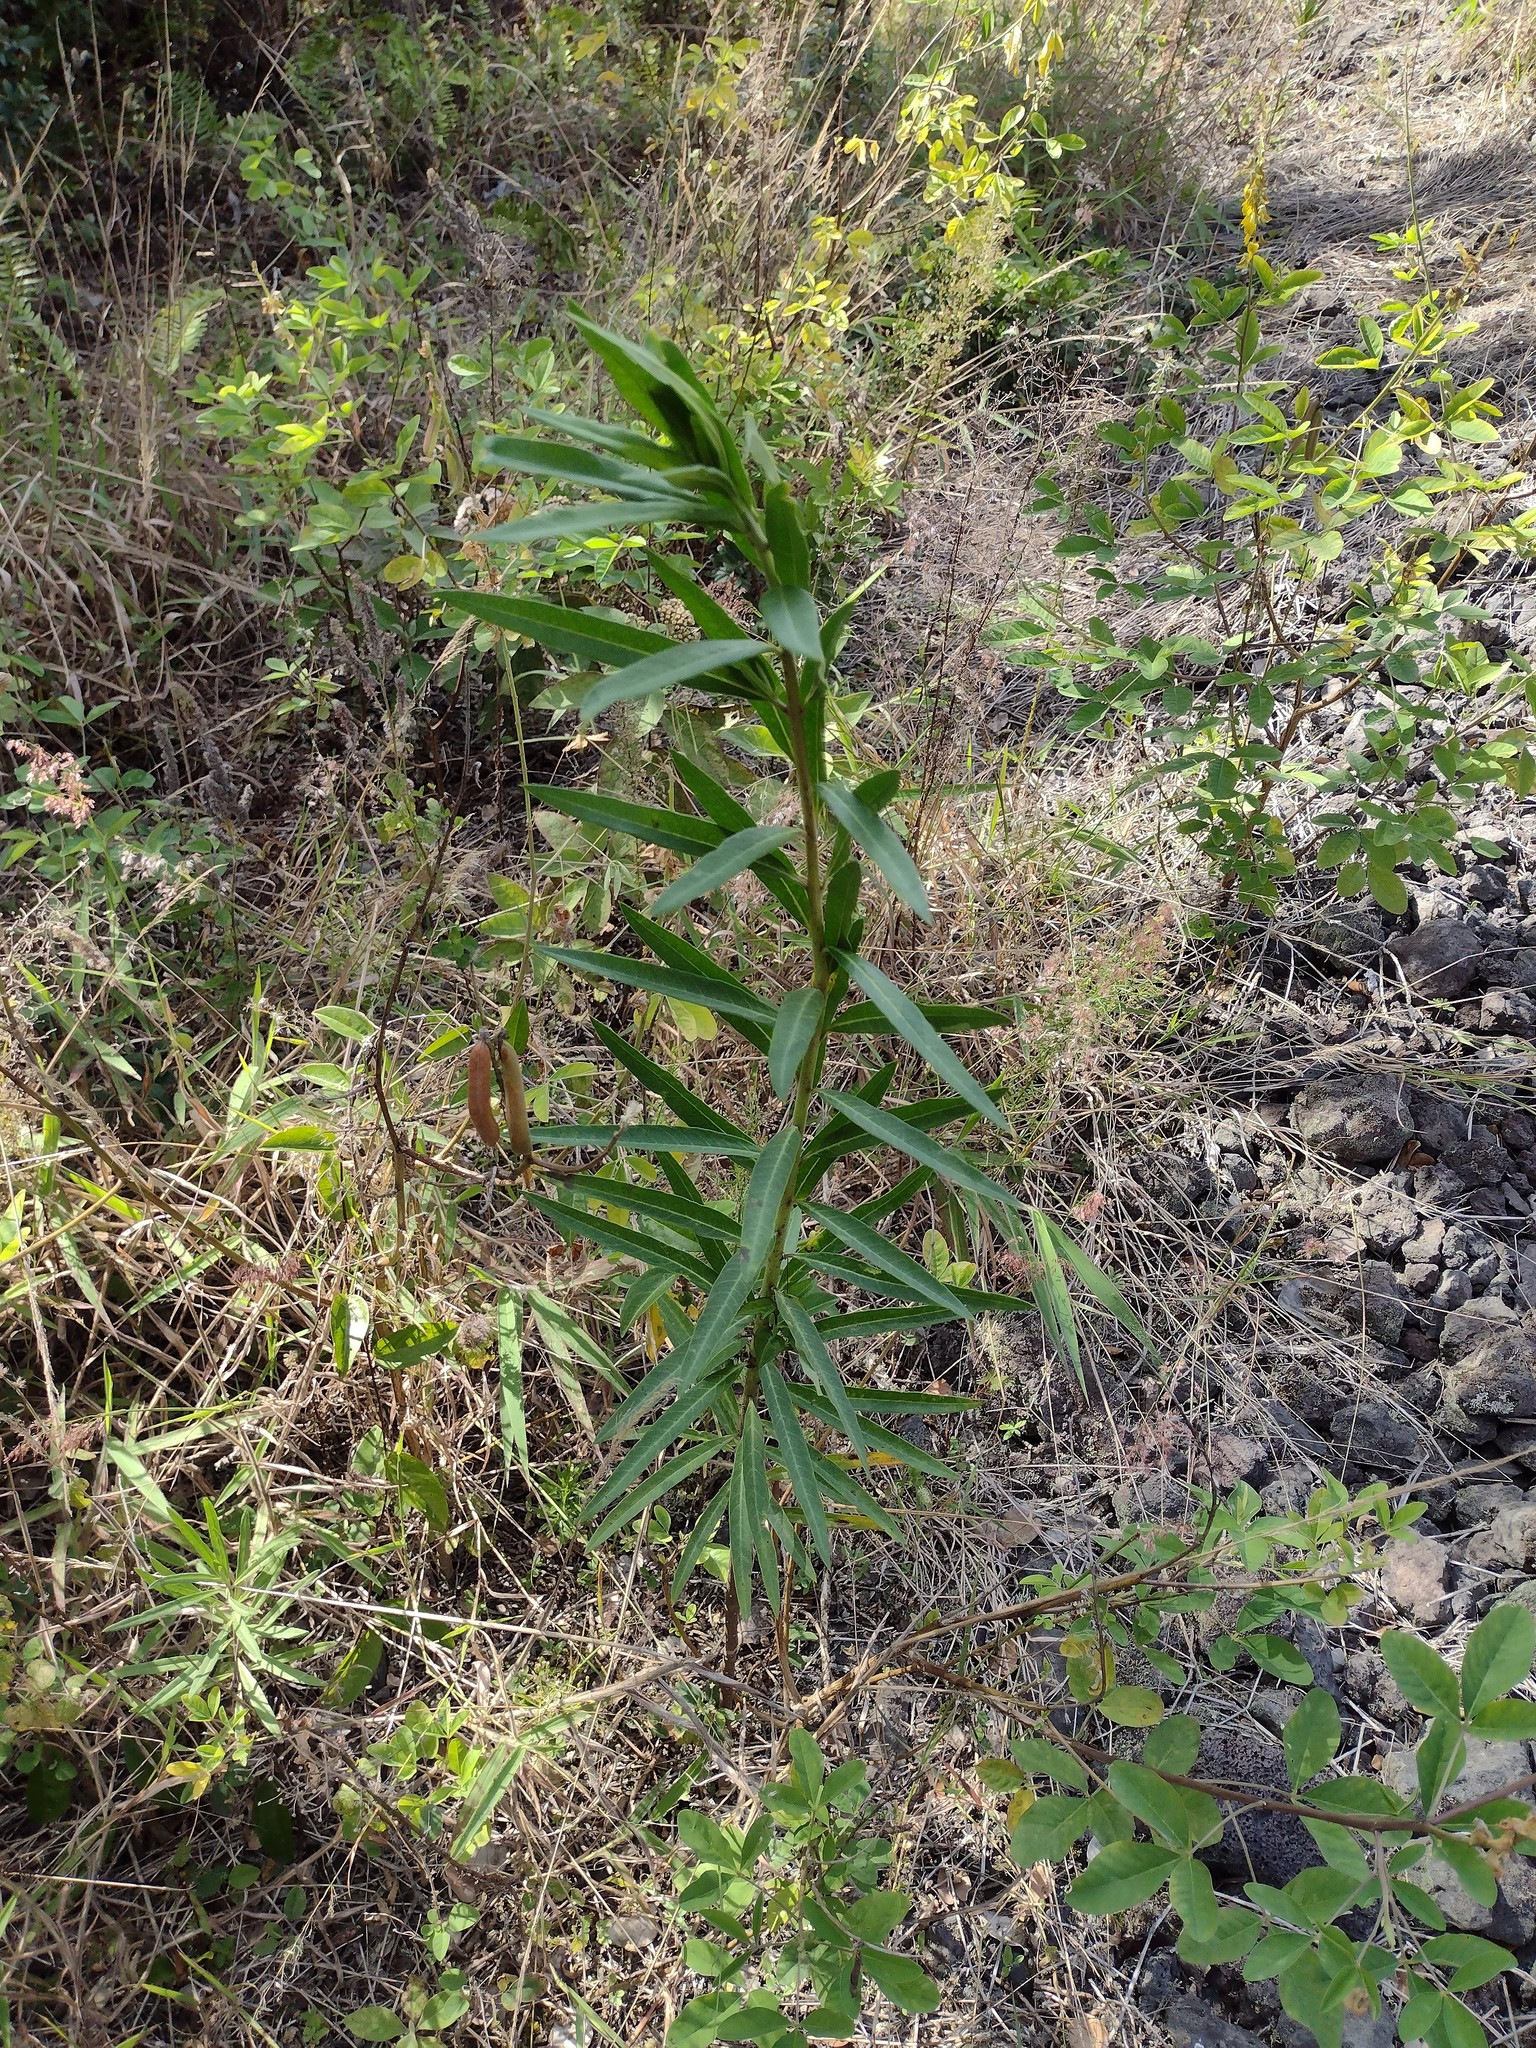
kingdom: Plantae
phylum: Tracheophyta
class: Magnoliopsida
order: Gentianales
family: Apocynaceae
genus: Gomphocarpus
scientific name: Gomphocarpus physocarpus
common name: Balloon cotton bush
